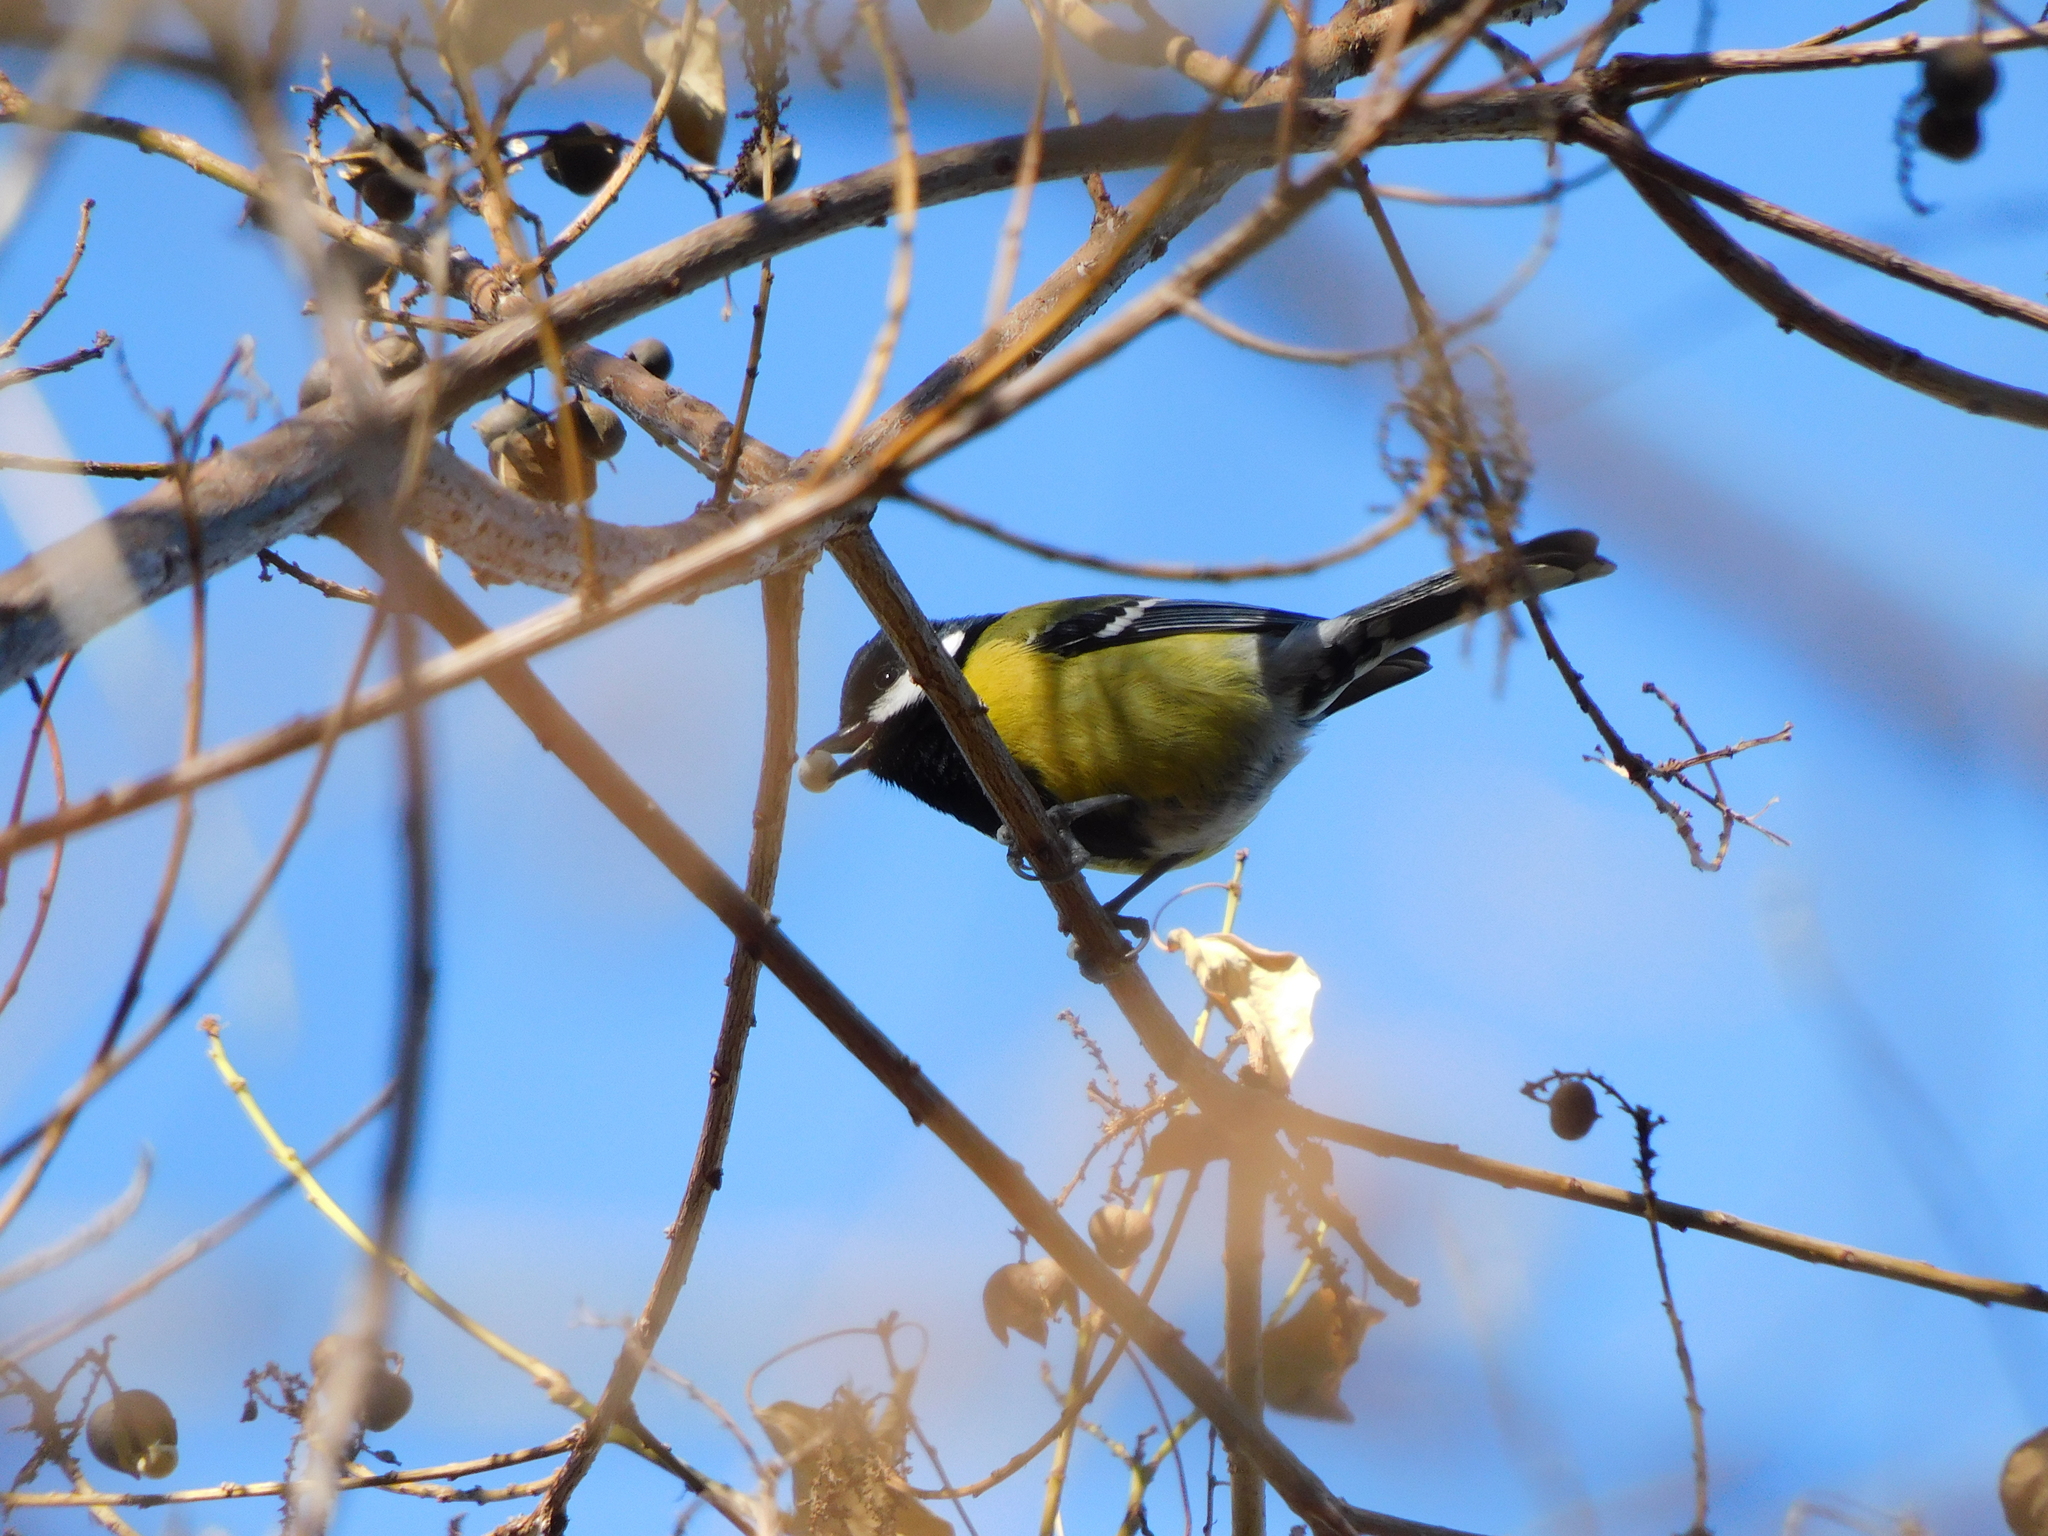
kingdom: Animalia
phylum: Chordata
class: Aves
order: Passeriformes
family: Paridae
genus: Parus
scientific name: Parus monticolus
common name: Green-backed tit
